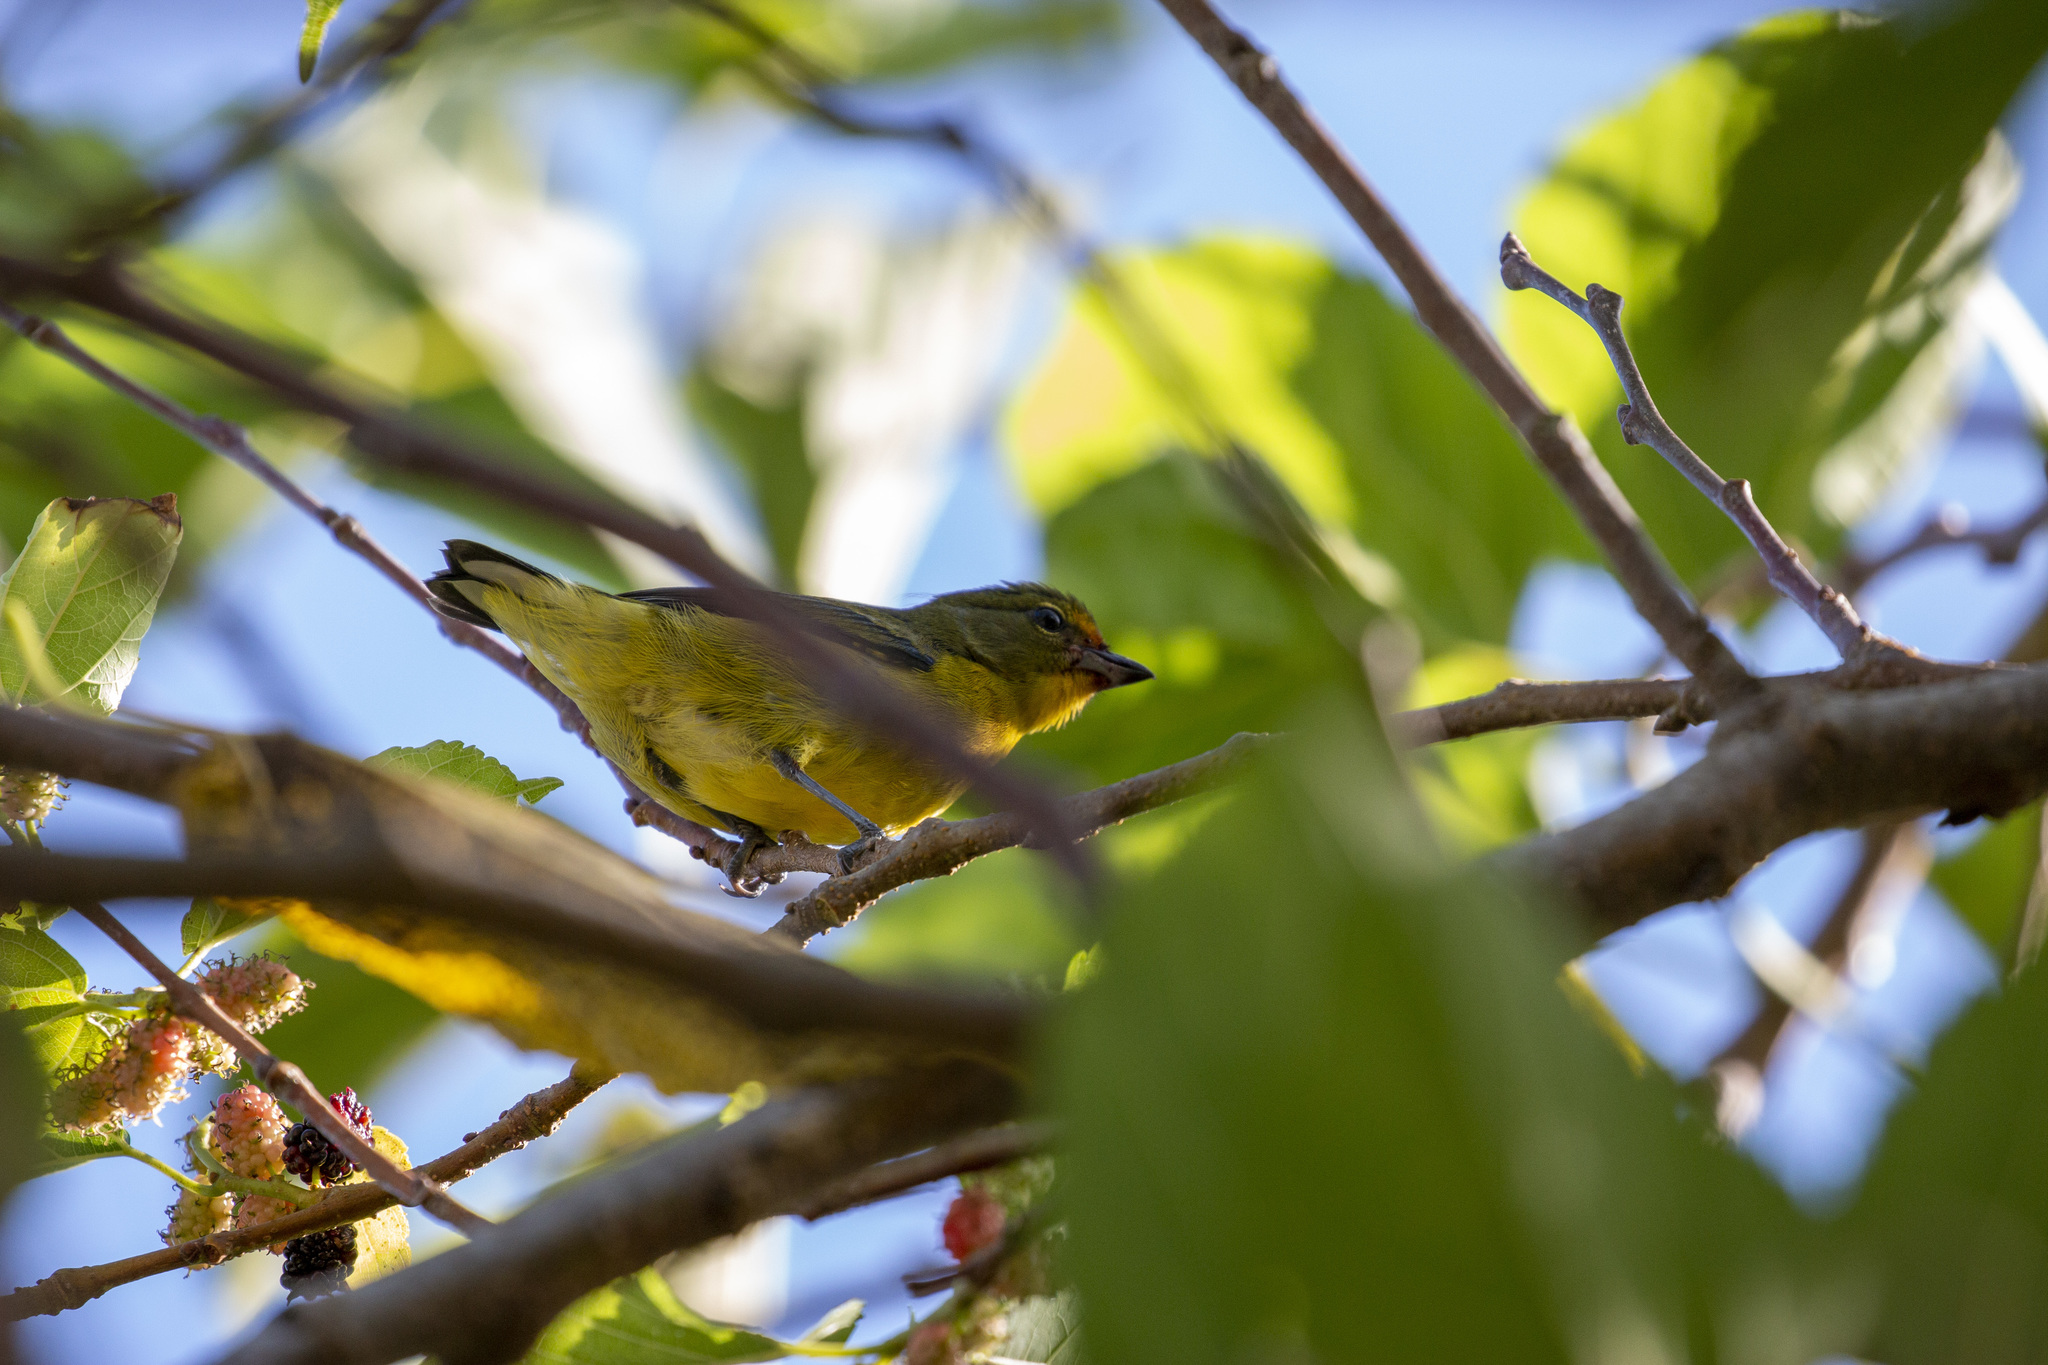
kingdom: Animalia
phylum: Chordata
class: Aves
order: Passeriformes
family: Fringillidae
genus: Euphonia
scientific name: Euphonia violacea
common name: Violaceous euphonia
